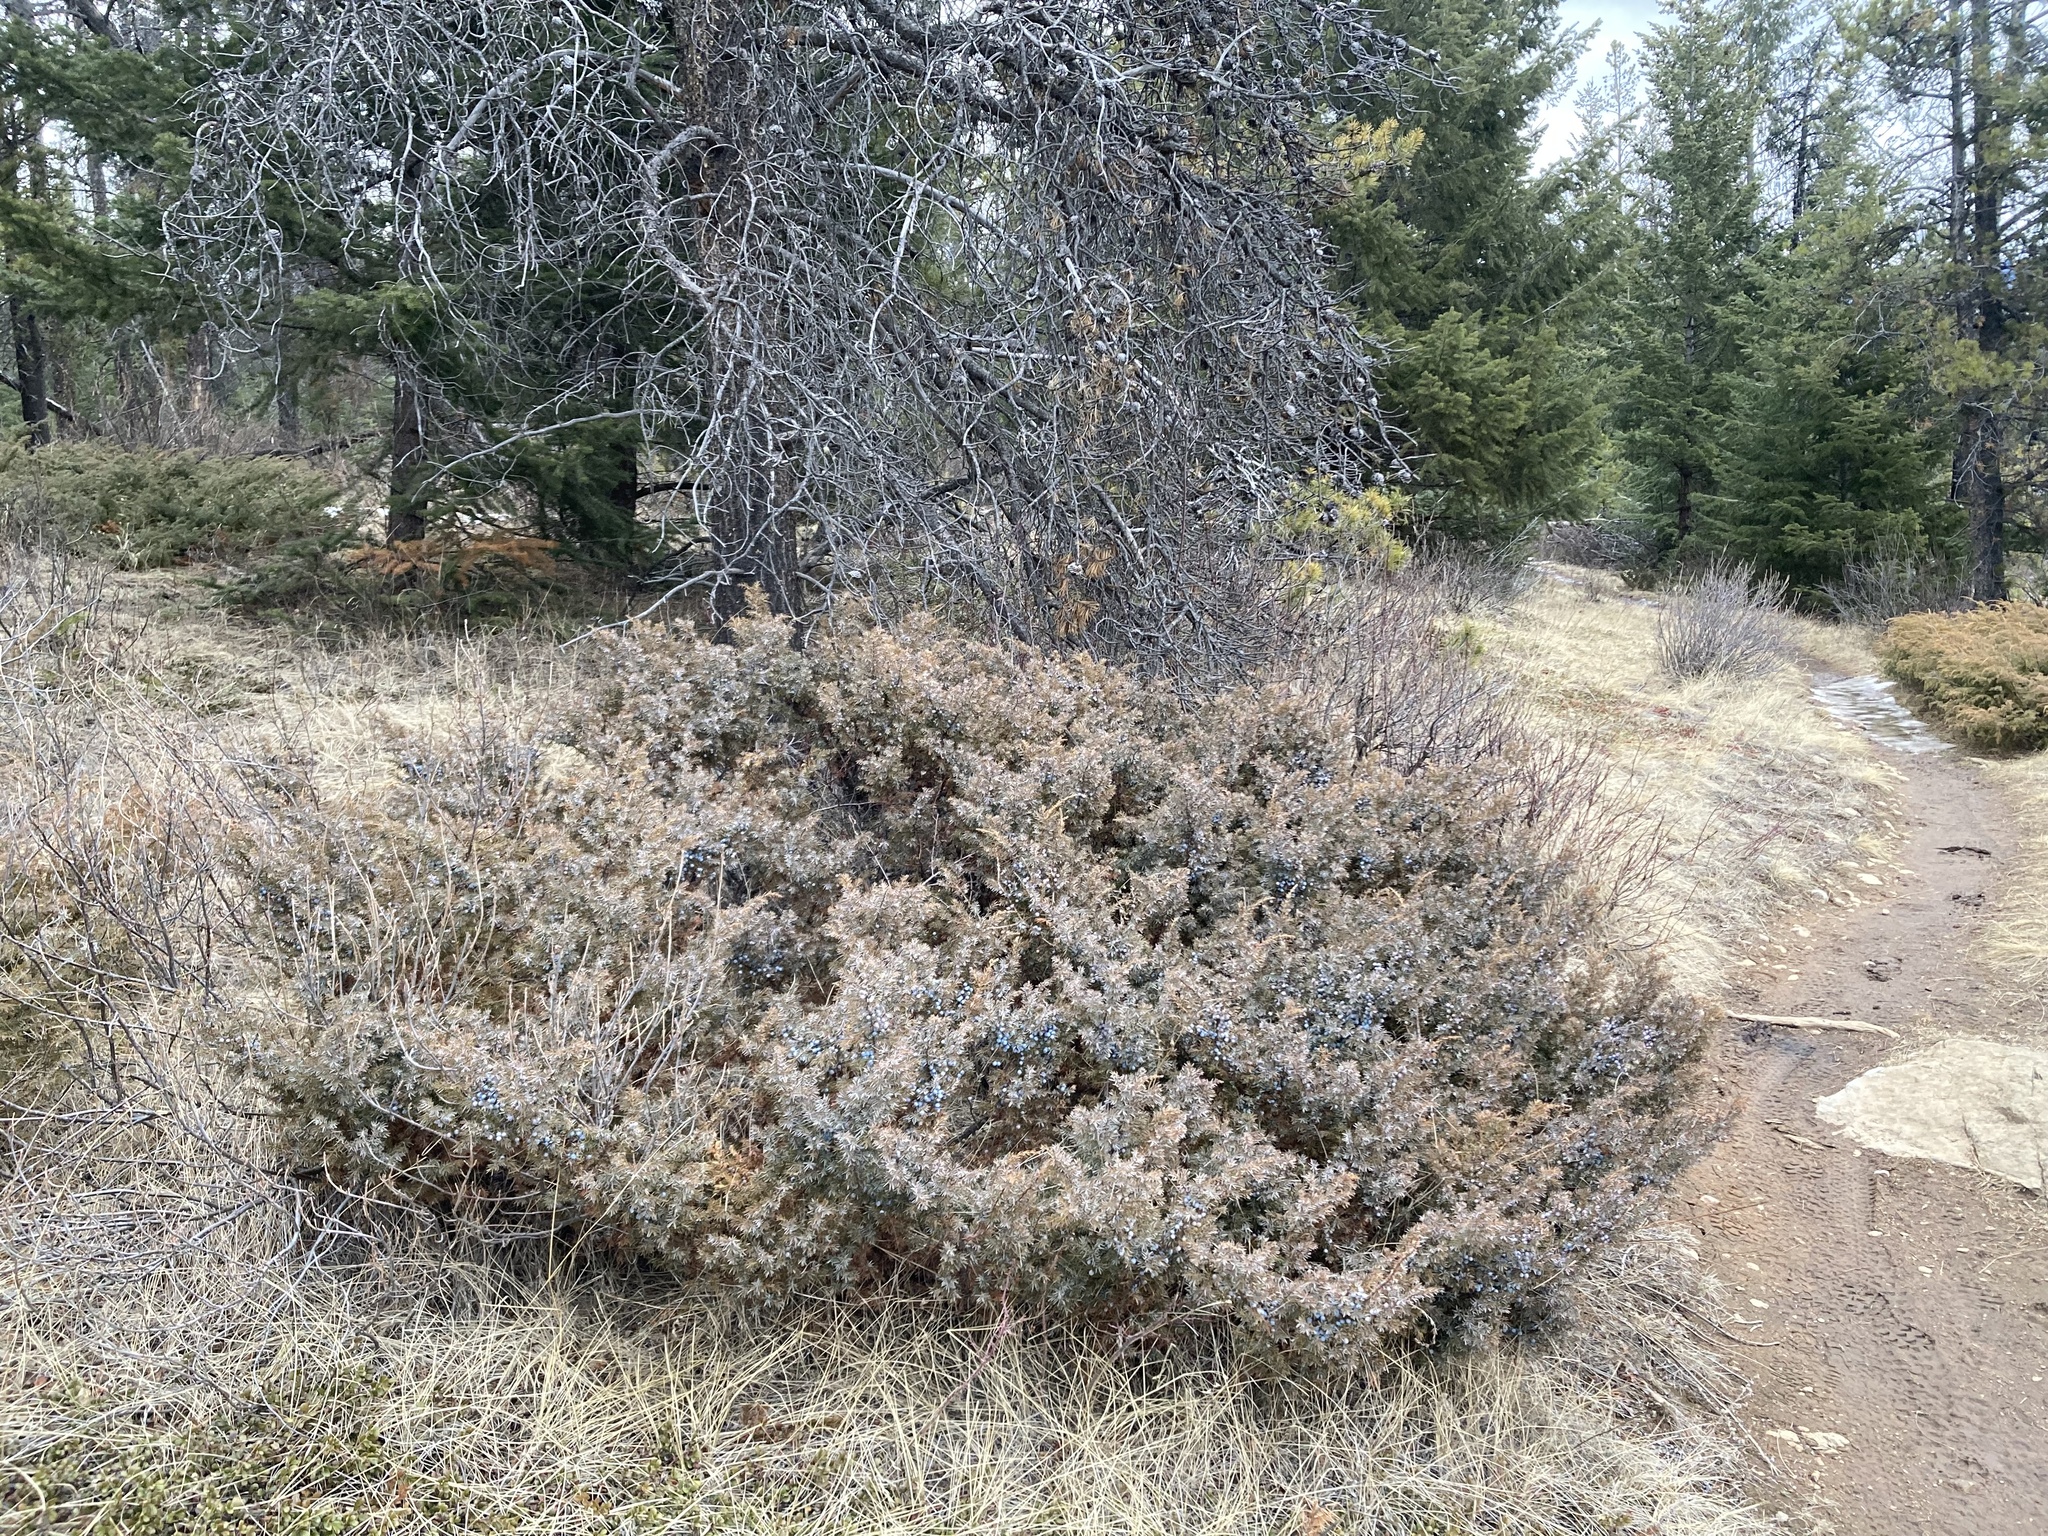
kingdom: Plantae
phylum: Tracheophyta
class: Pinopsida
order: Pinales
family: Cupressaceae
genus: Juniperus
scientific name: Juniperus communis
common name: Common juniper
